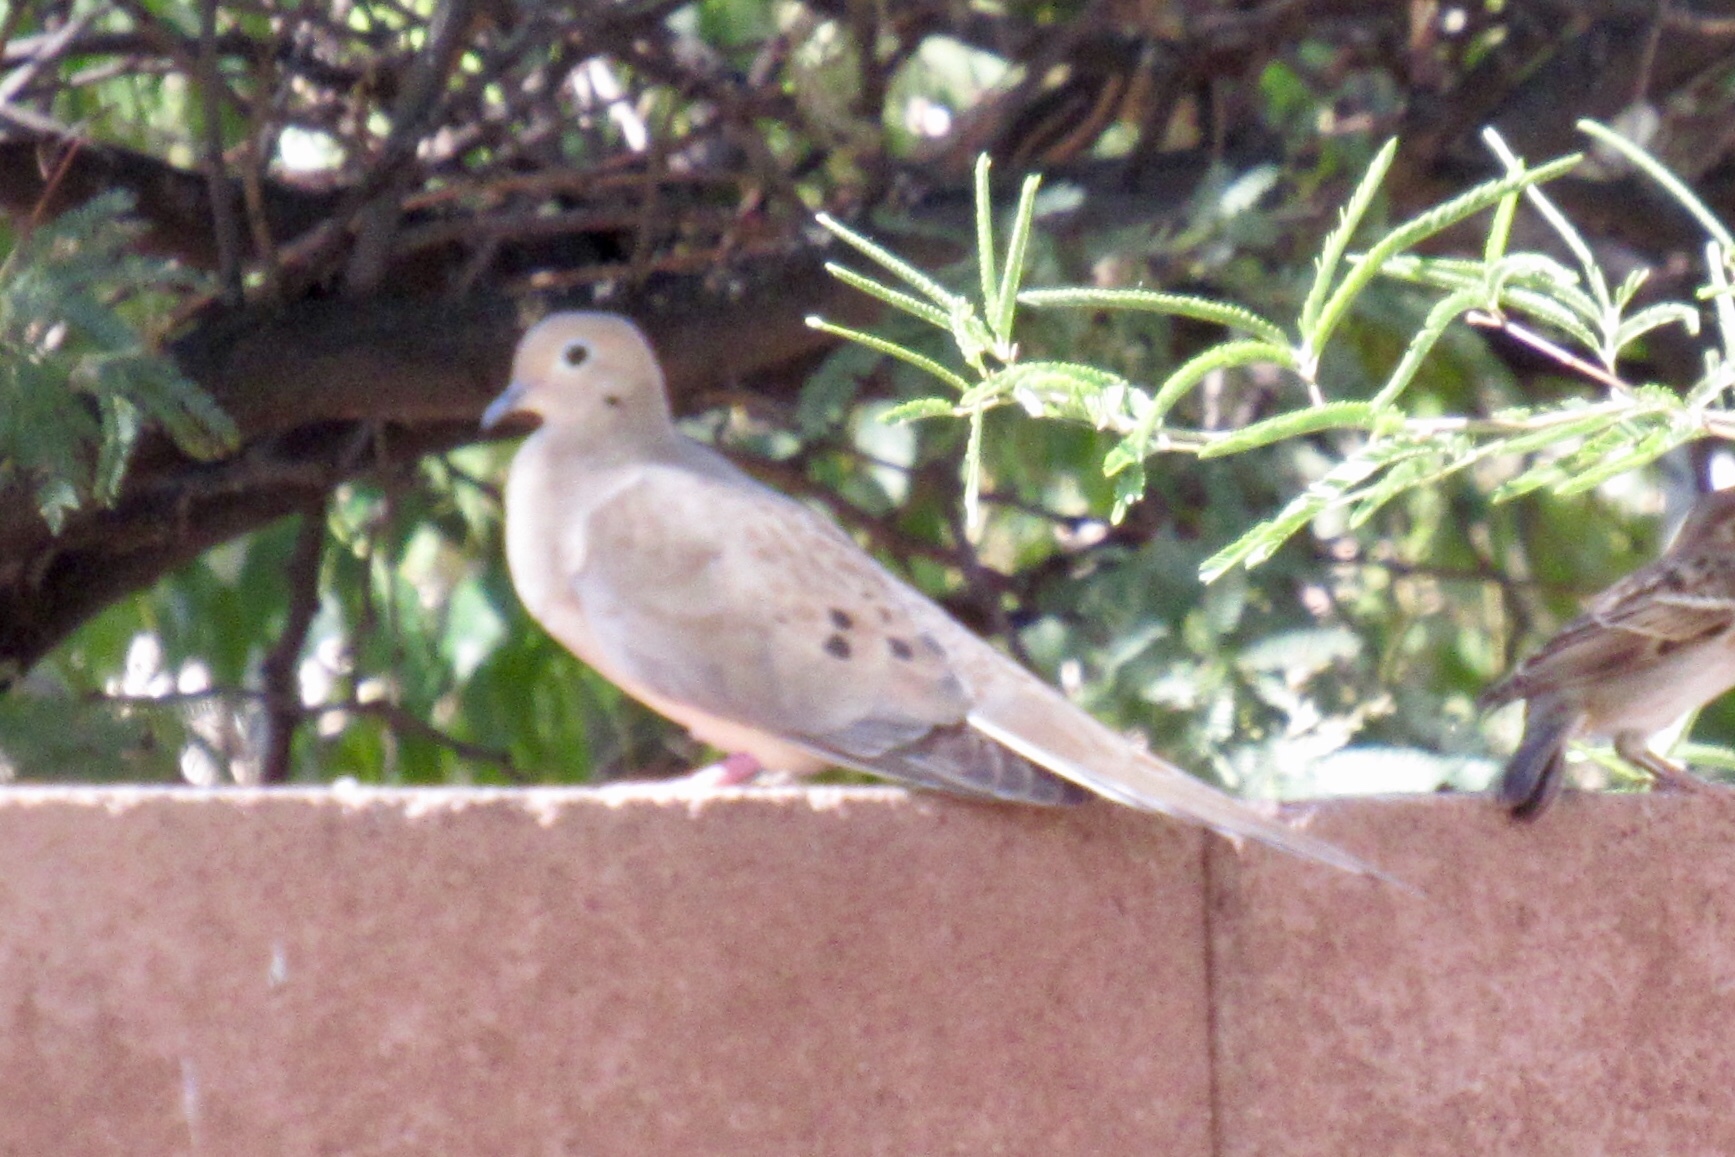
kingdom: Animalia
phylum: Chordata
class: Aves
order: Columbiformes
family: Columbidae
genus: Zenaida
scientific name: Zenaida macroura
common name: Mourning dove
